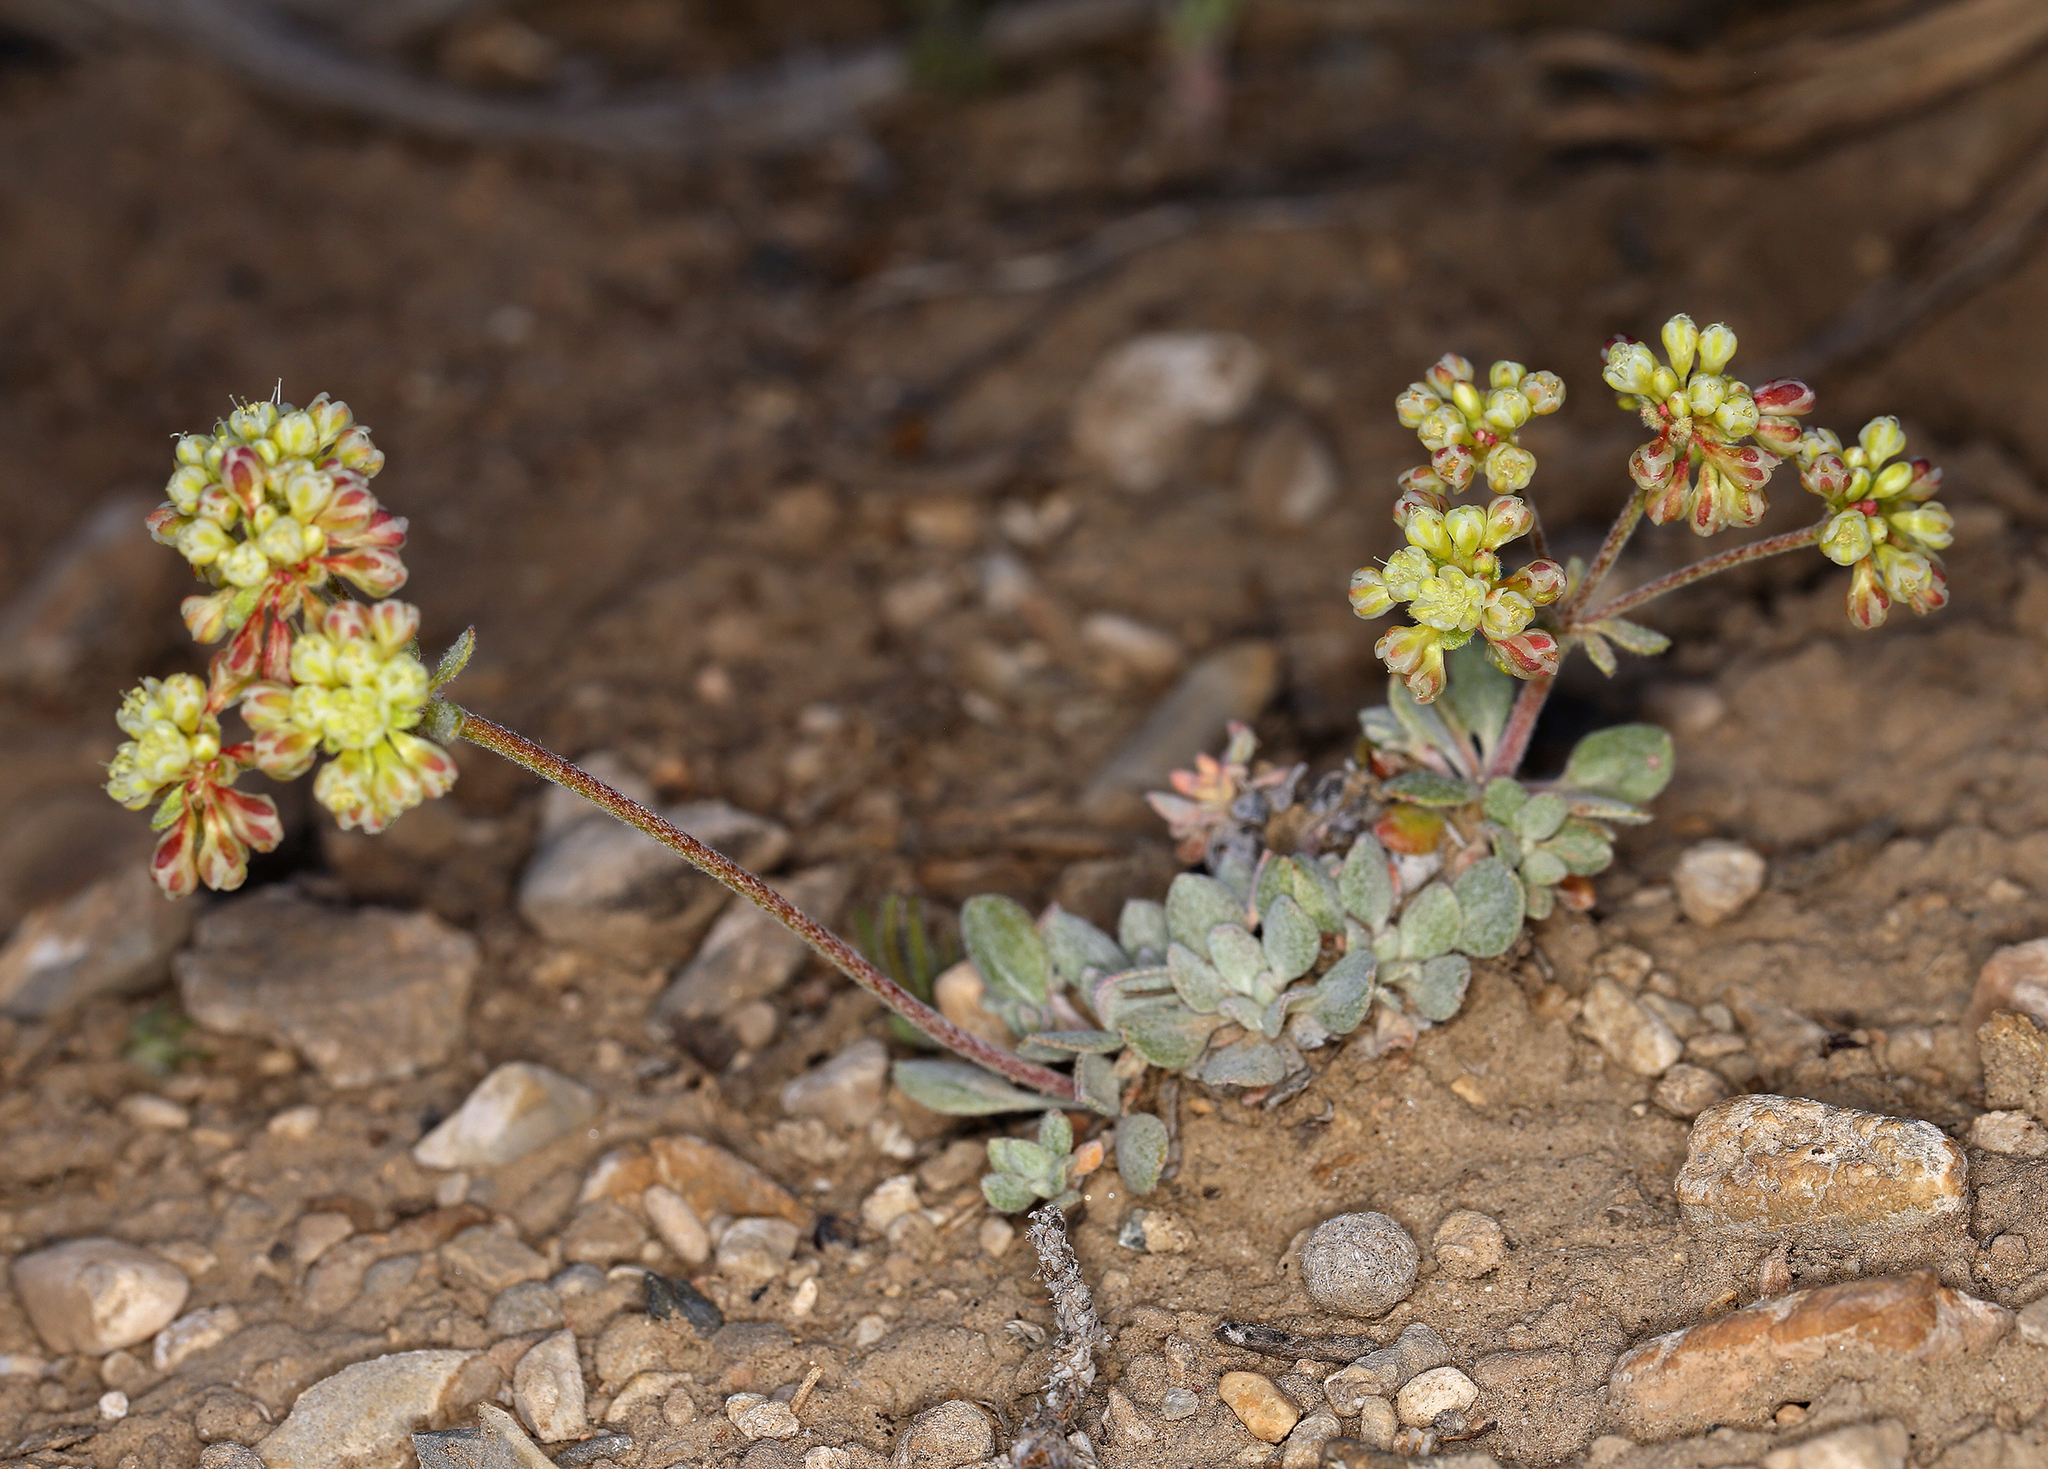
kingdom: Plantae
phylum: Tracheophyta
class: Magnoliopsida
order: Caryophyllales
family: Polygonaceae
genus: Eriogonum
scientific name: Eriogonum umbellatum
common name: Sulfur-buckwheat
